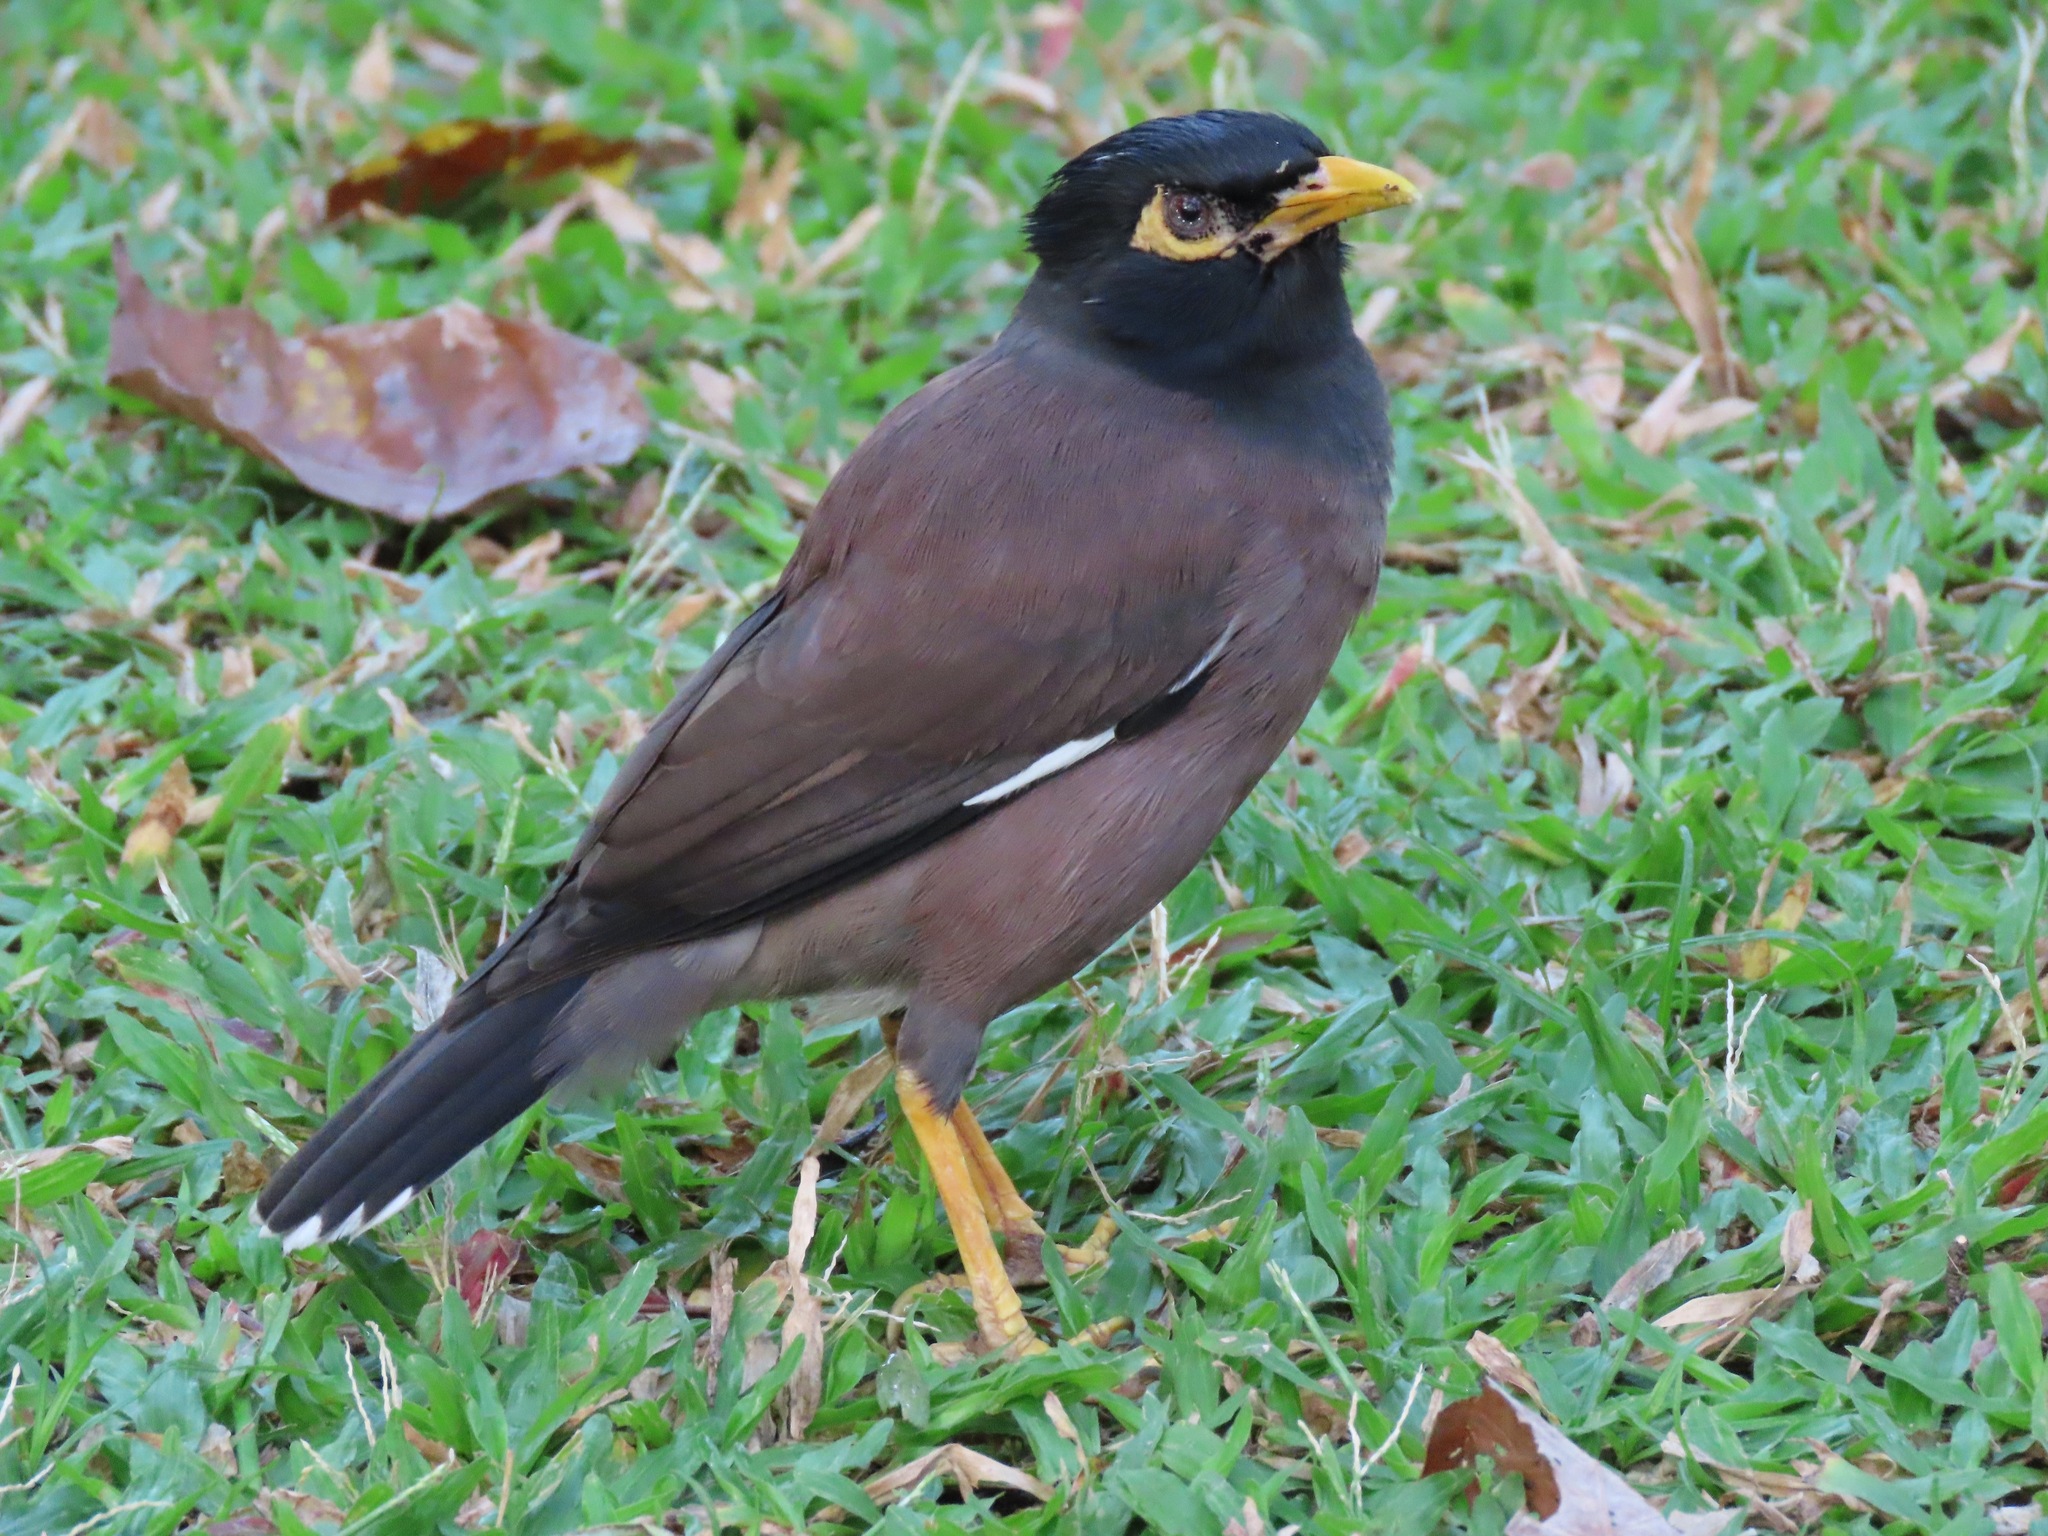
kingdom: Animalia
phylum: Chordata
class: Aves
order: Passeriformes
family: Sturnidae
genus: Acridotheres
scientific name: Acridotheres tristis
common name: Common myna
